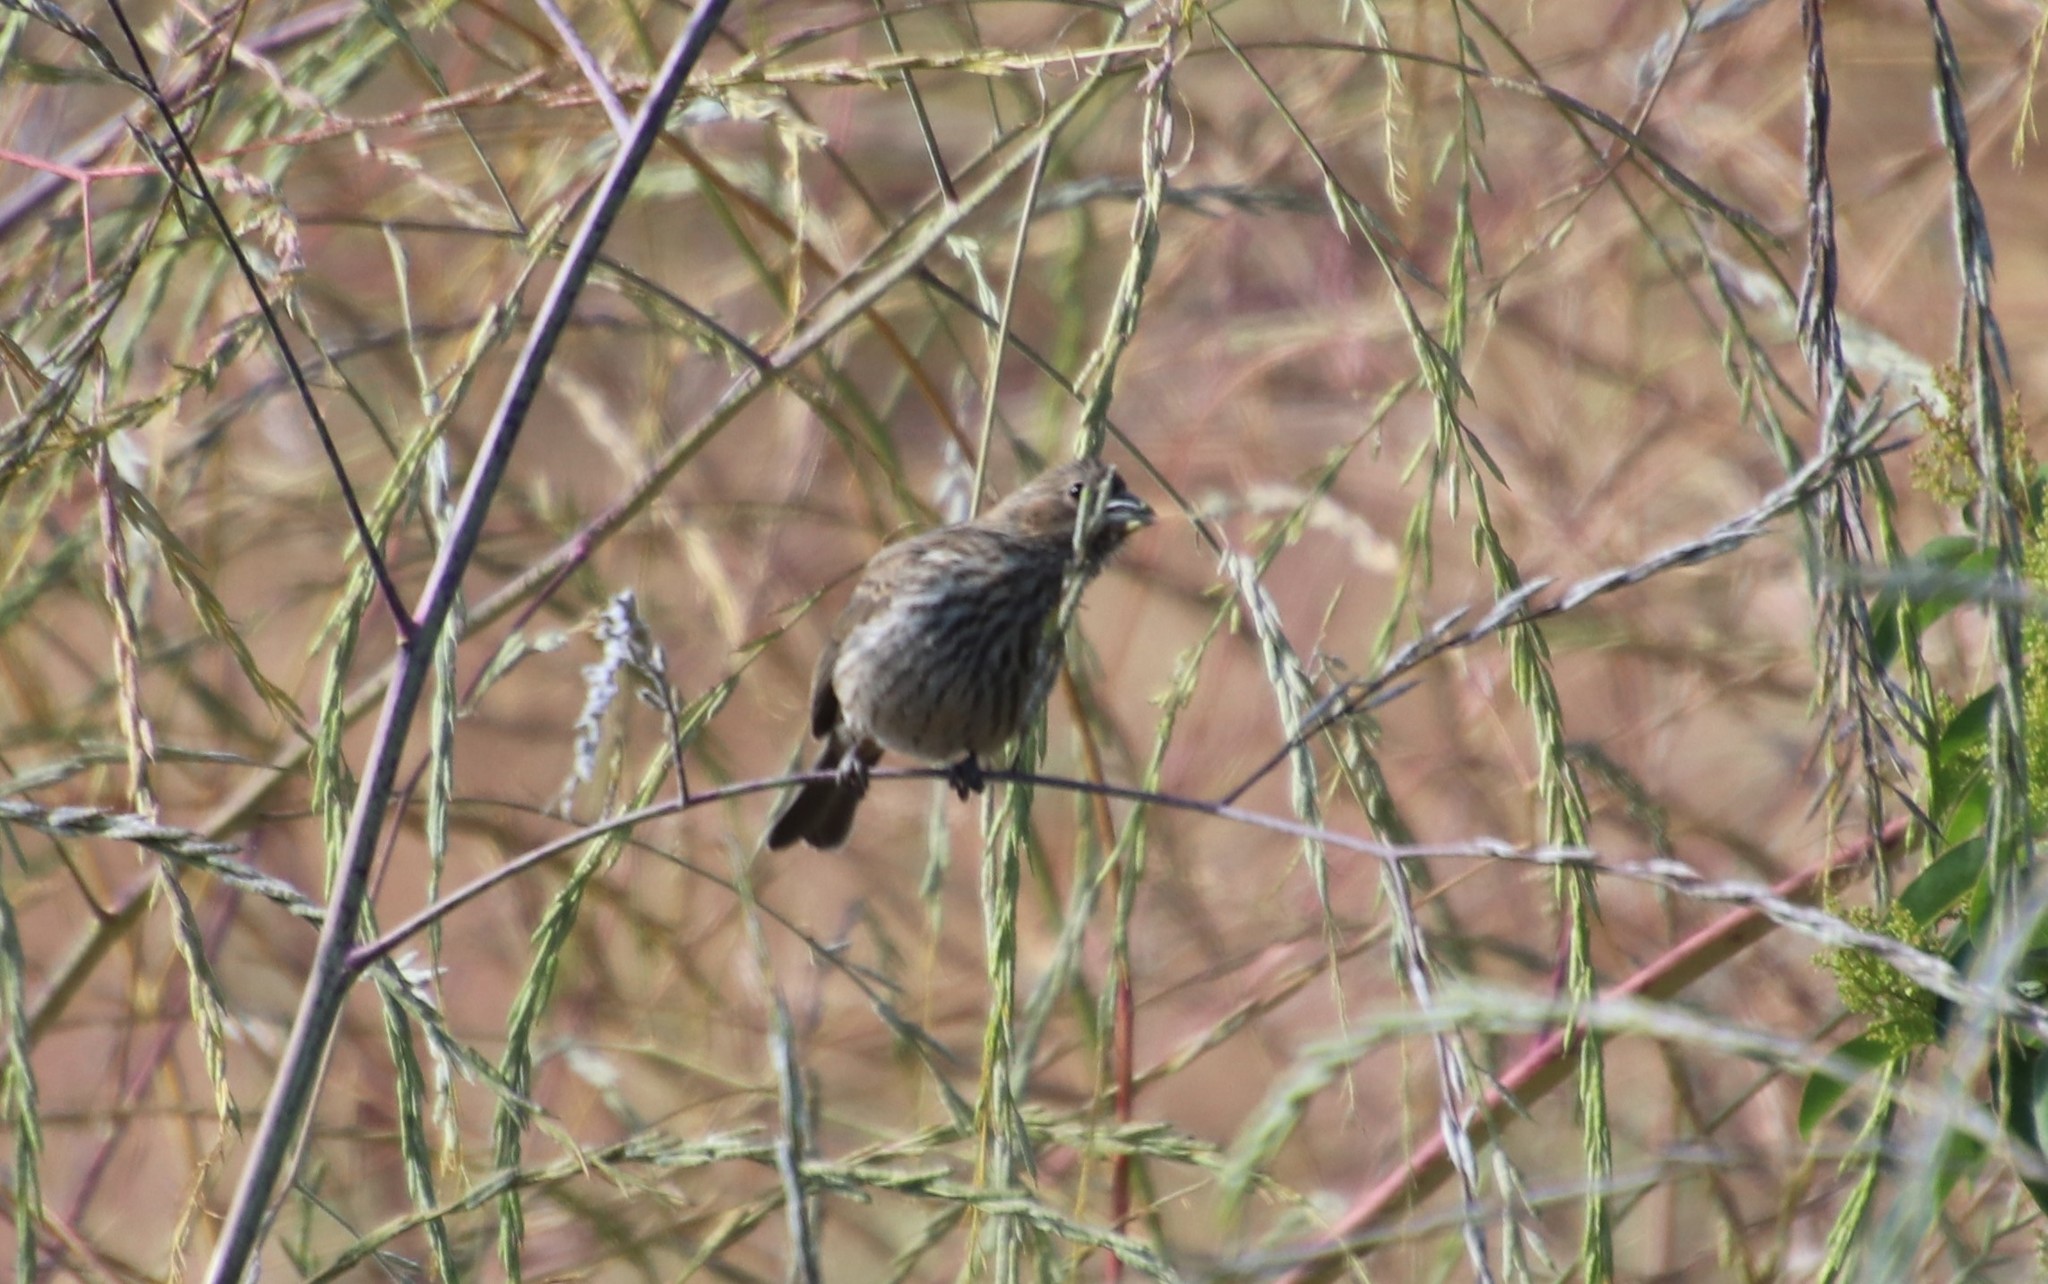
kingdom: Animalia
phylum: Chordata
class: Aves
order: Passeriformes
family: Fringillidae
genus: Haemorhous
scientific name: Haemorhous mexicanus
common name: House finch
